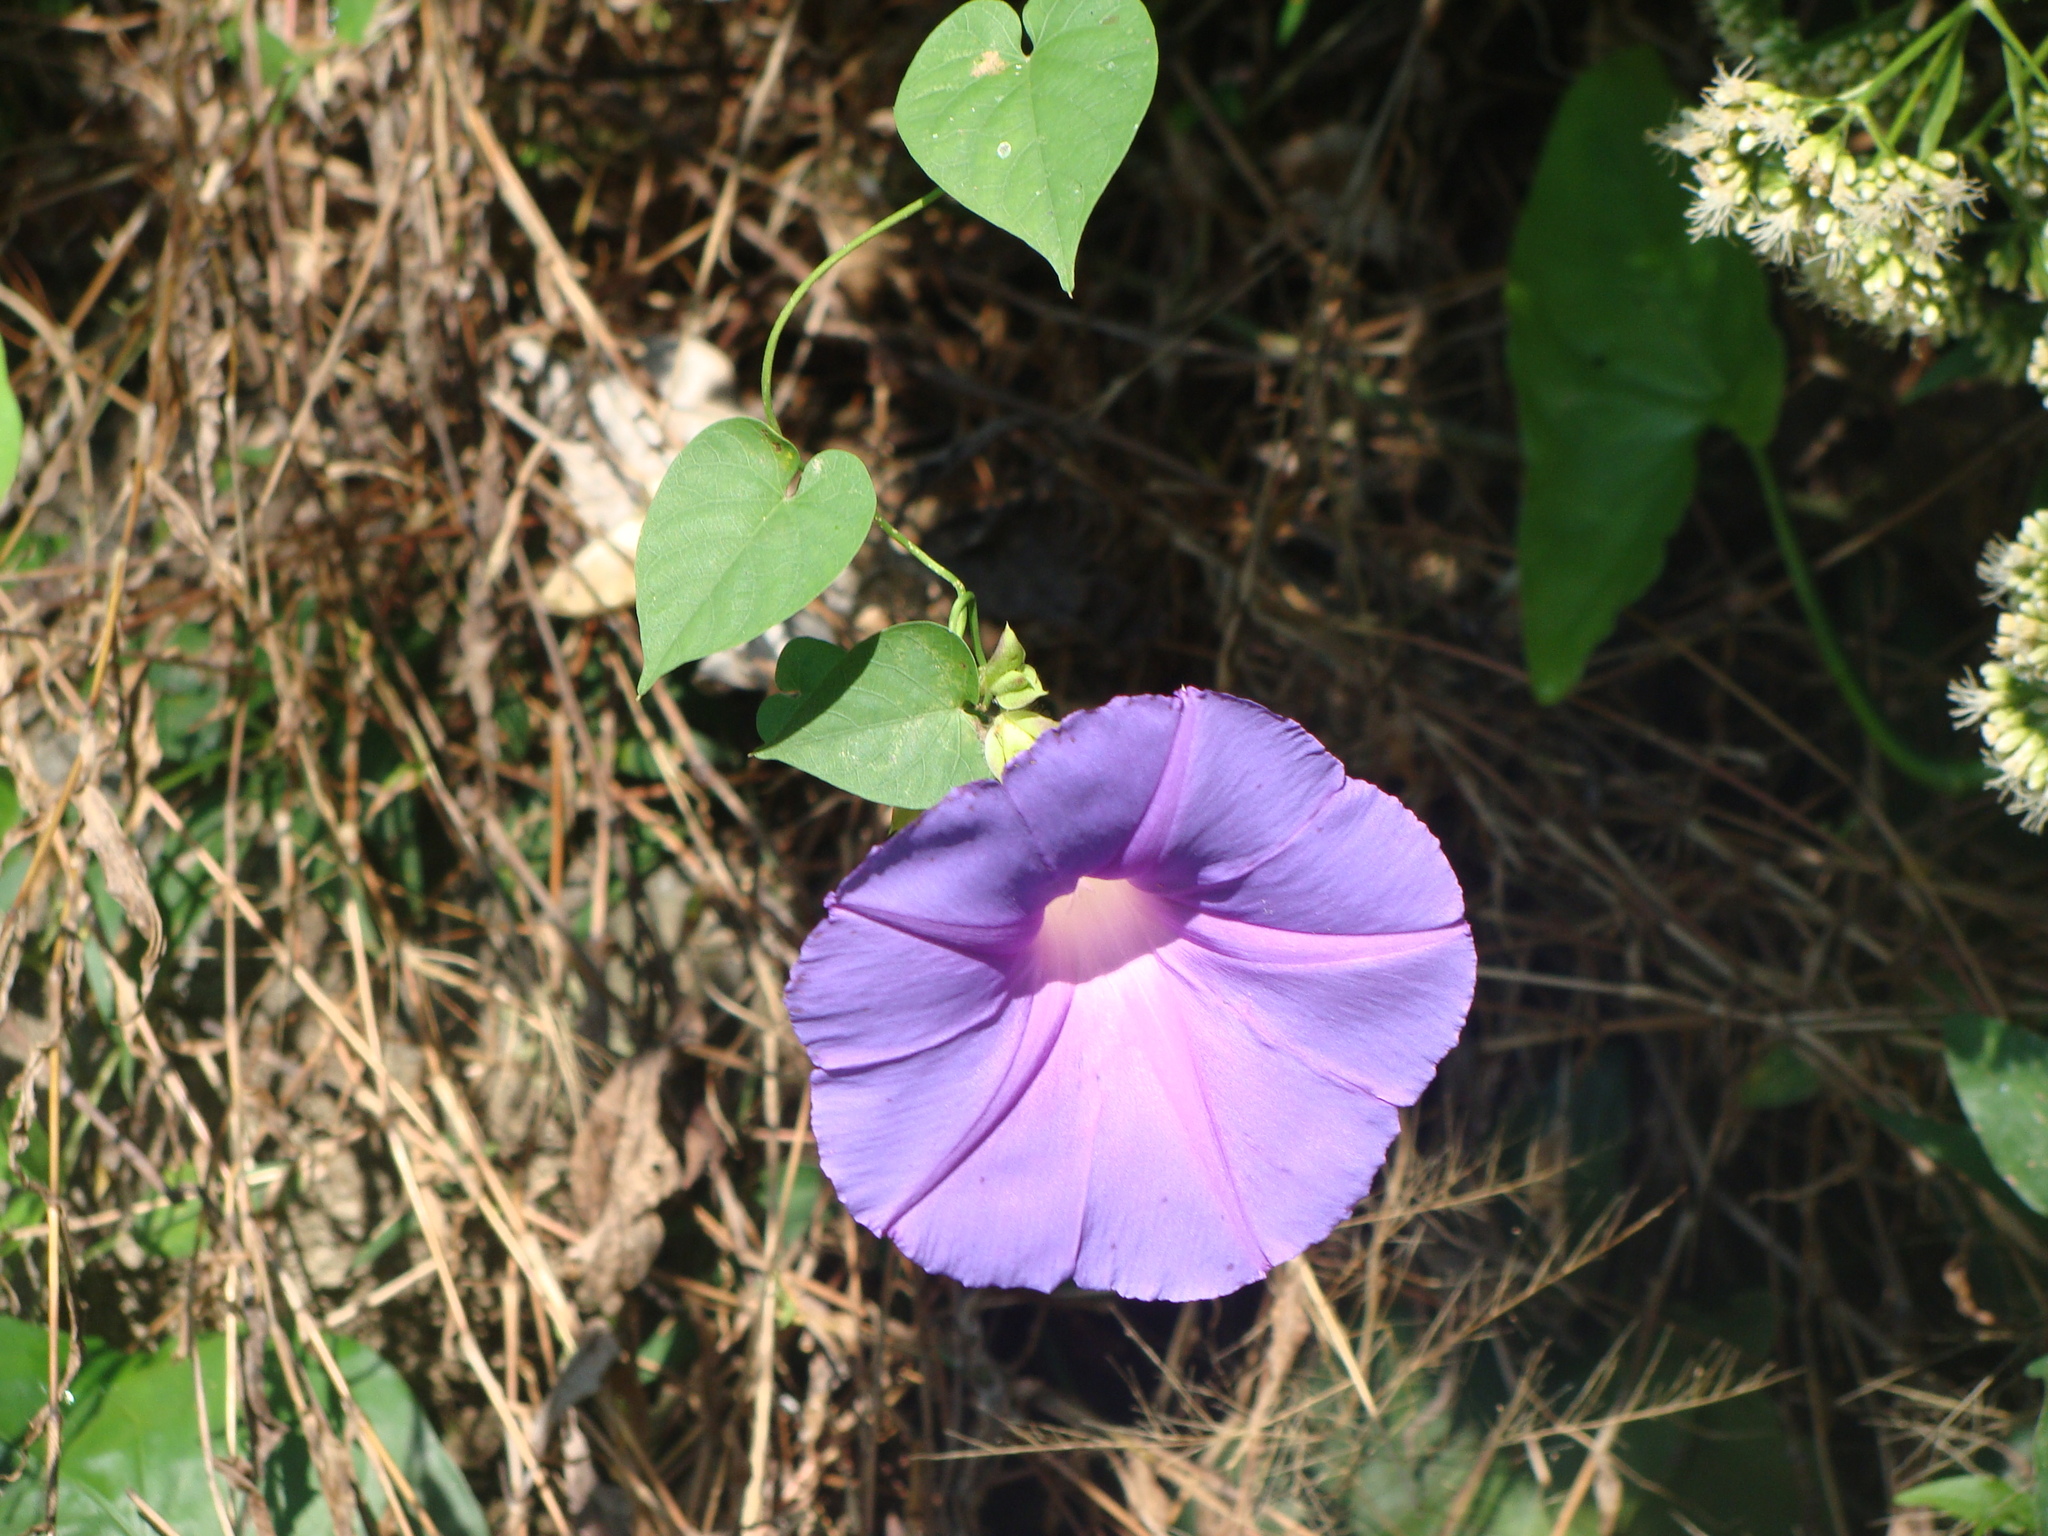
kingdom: Plantae
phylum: Tracheophyta
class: Magnoliopsida
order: Solanales
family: Convolvulaceae
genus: Ipomoea
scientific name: Ipomoea mitchelliae
